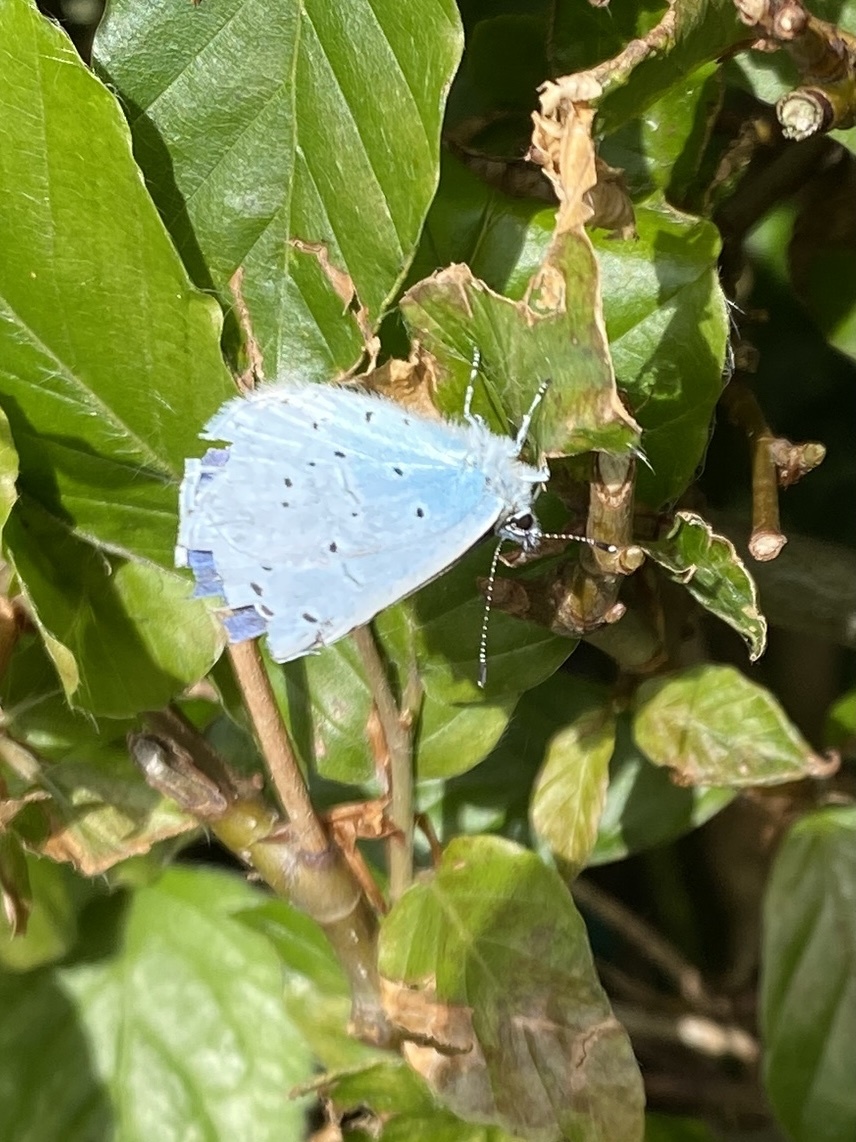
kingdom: Animalia
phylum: Arthropoda
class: Insecta
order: Lepidoptera
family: Lycaenidae
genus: Celastrina
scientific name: Celastrina argiolus
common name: Holly blue
